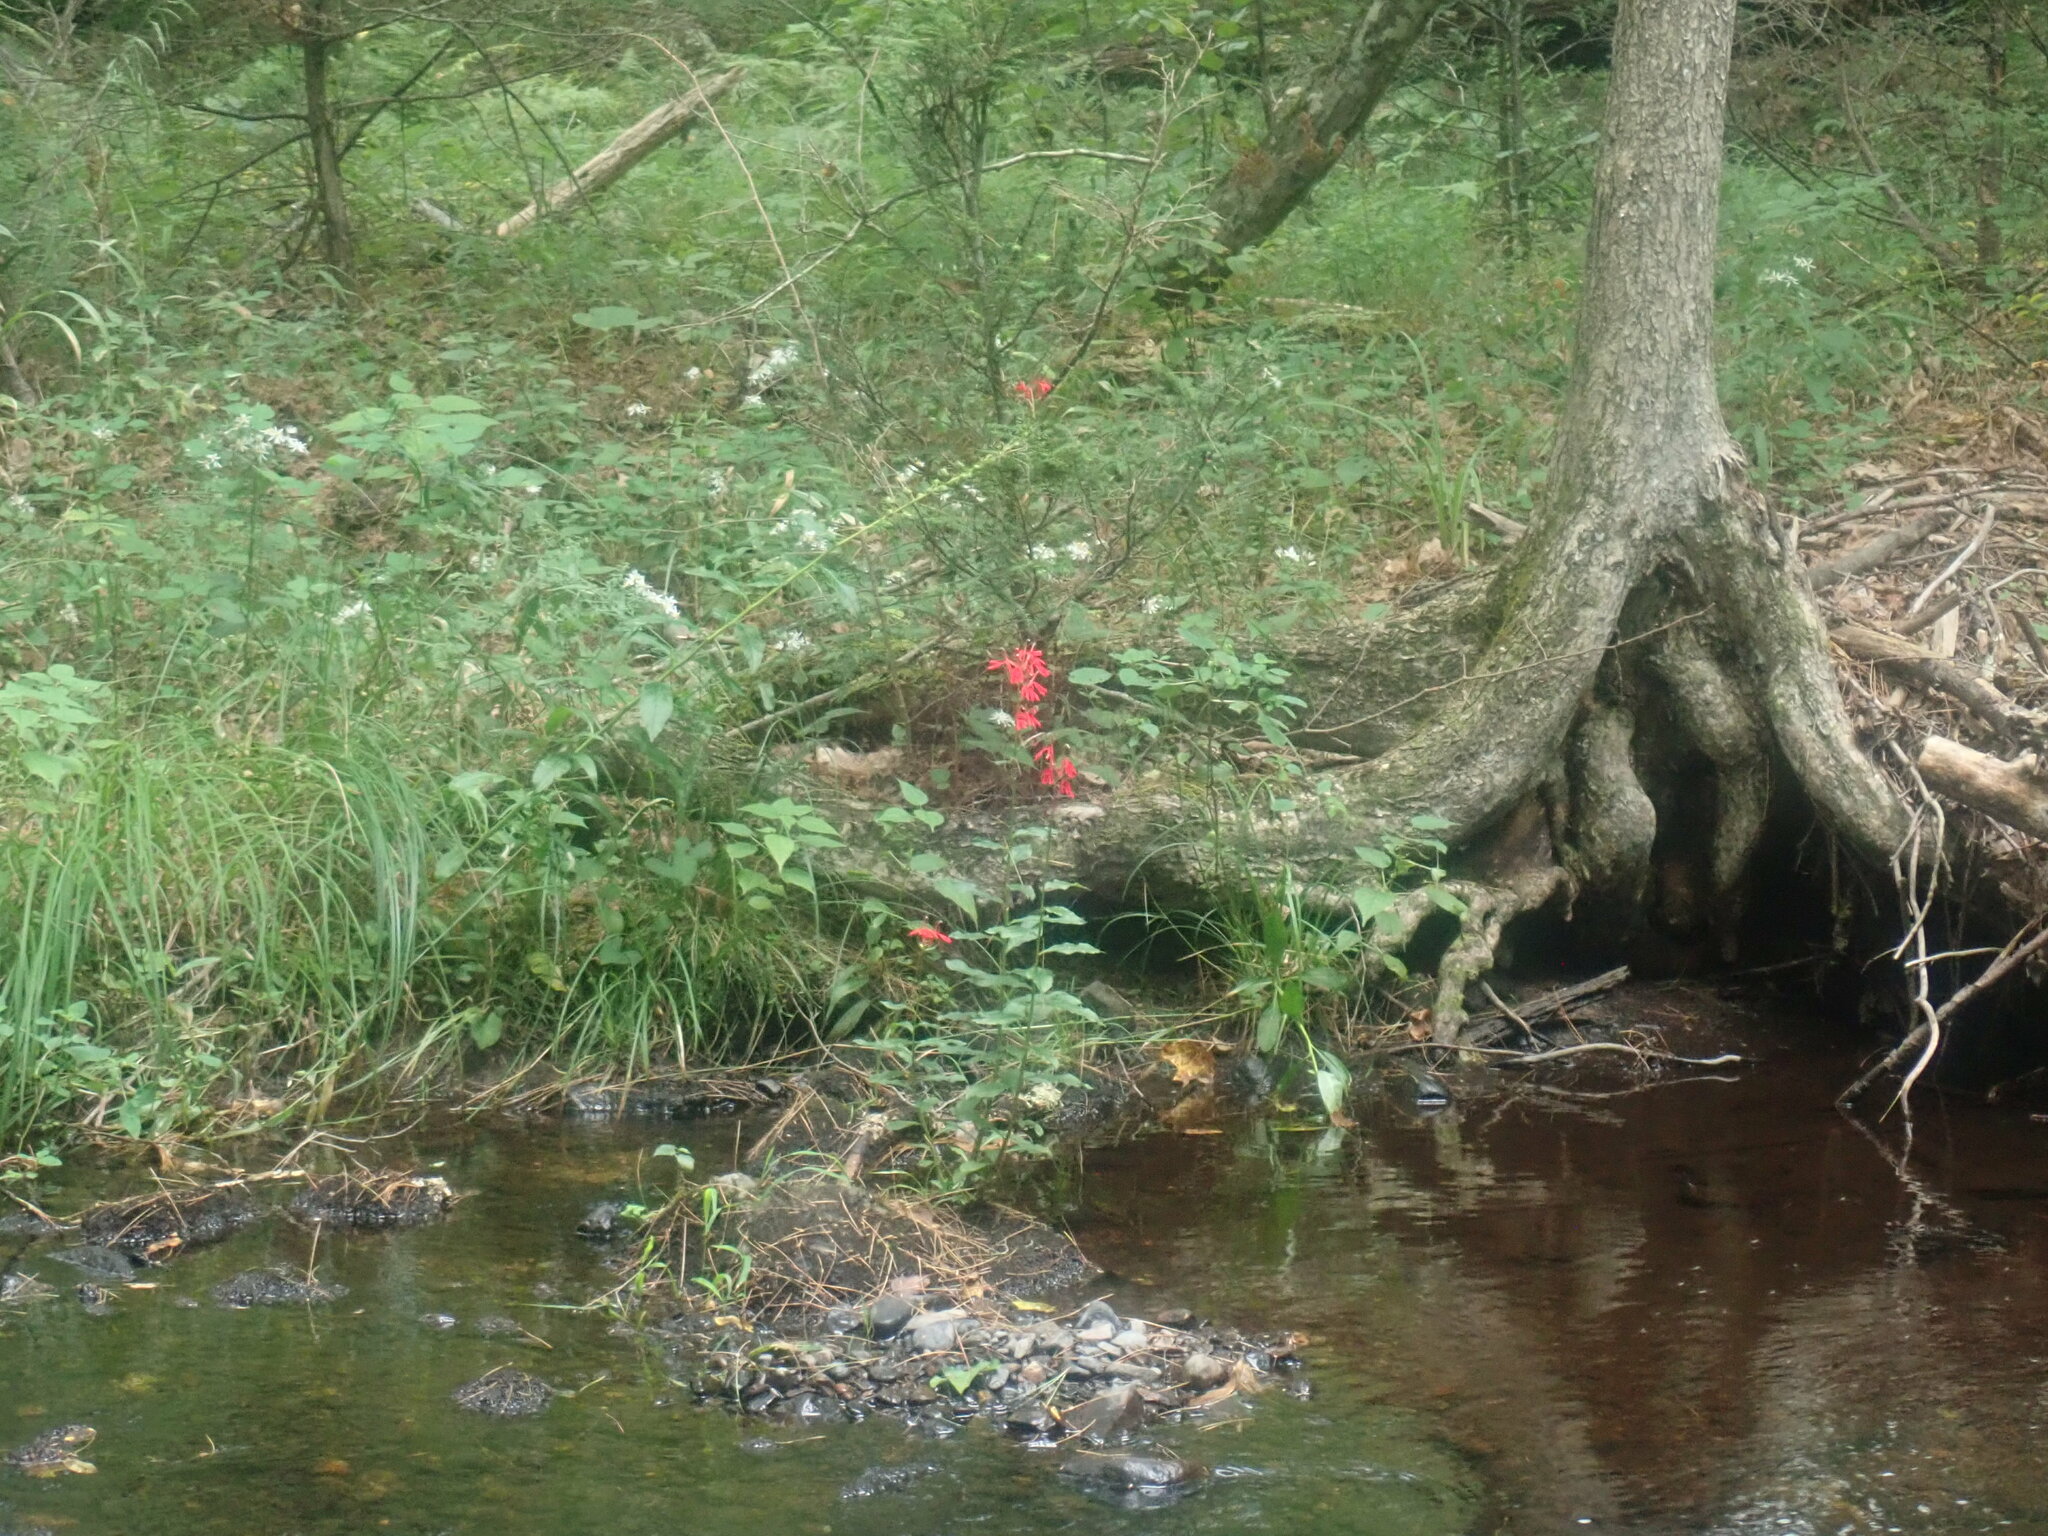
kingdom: Plantae
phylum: Tracheophyta
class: Magnoliopsida
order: Asterales
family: Campanulaceae
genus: Lobelia
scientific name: Lobelia cardinalis
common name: Cardinal flower
